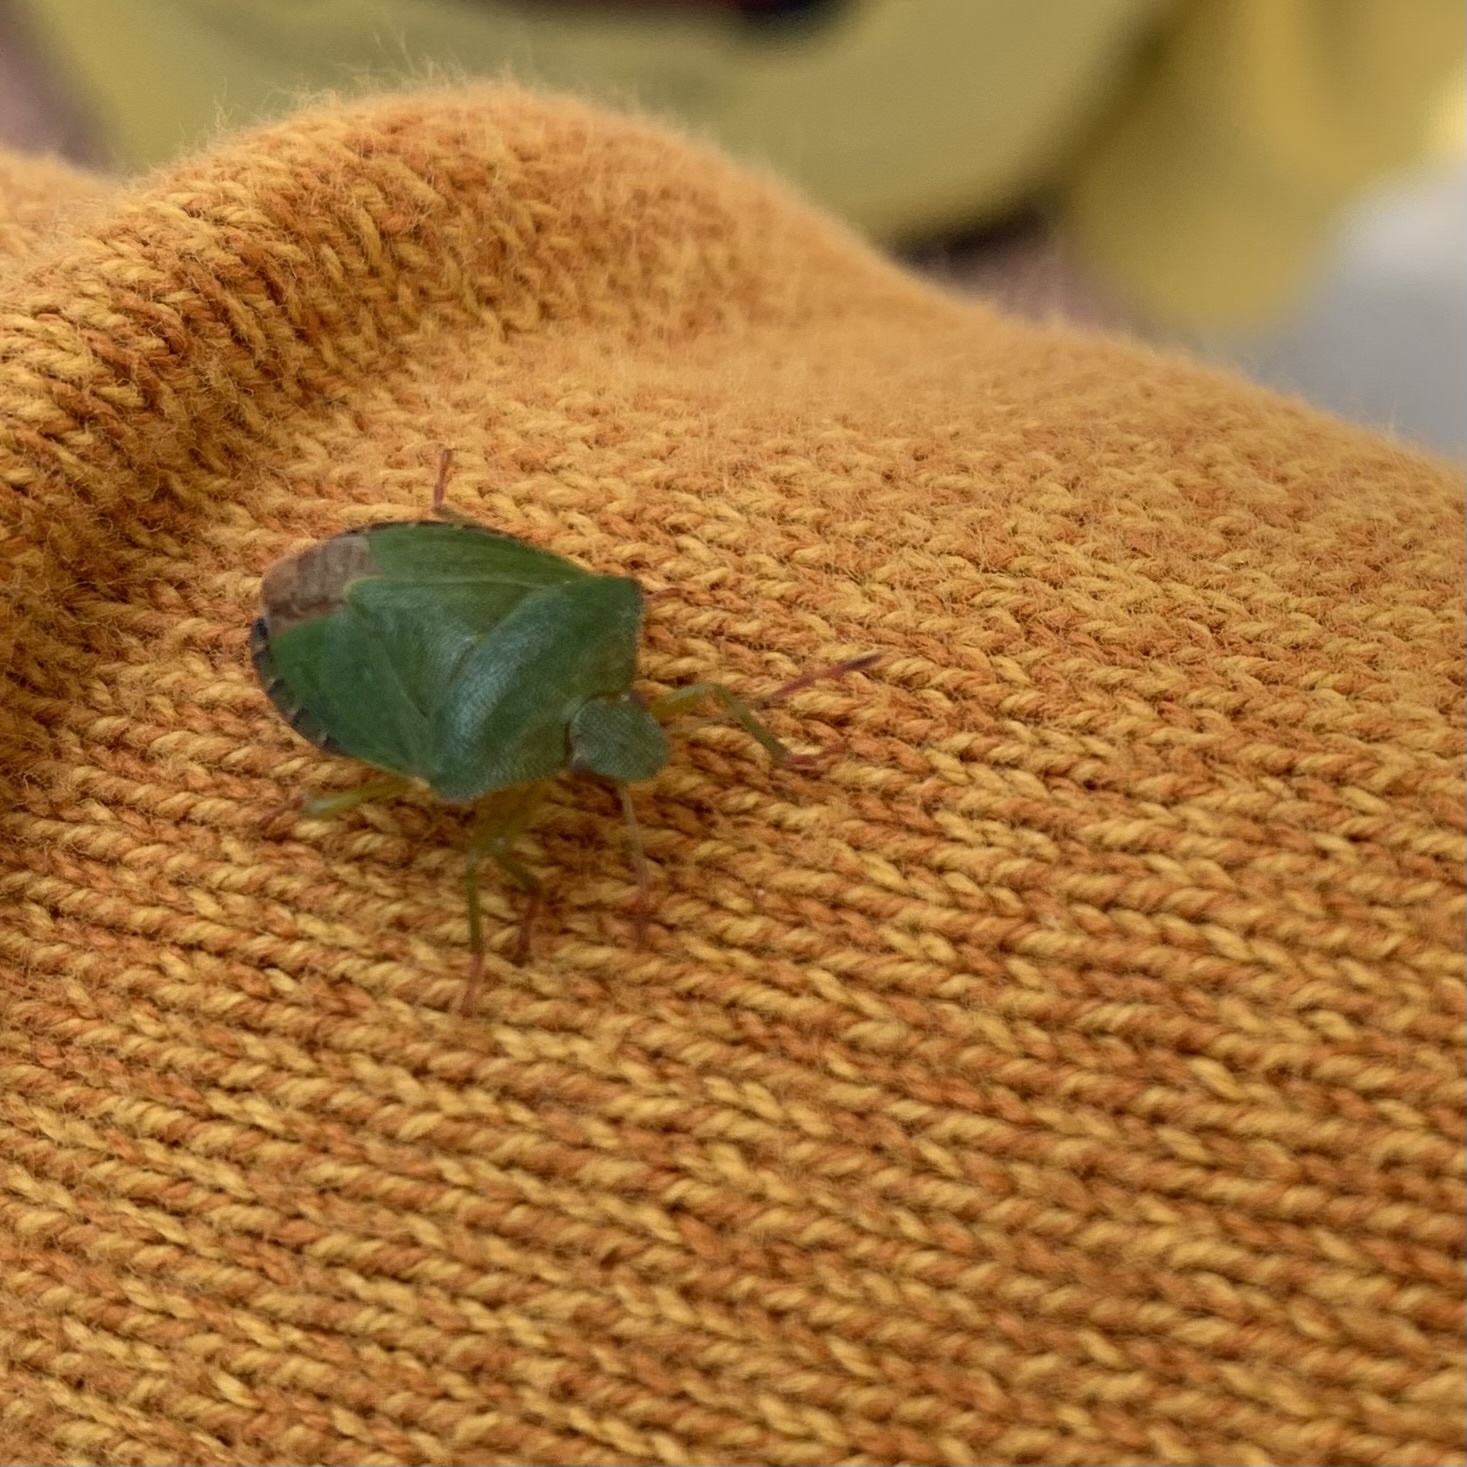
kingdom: Animalia
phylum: Arthropoda
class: Insecta
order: Hemiptera
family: Pentatomidae
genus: Palomena
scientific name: Palomena prasina
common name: Green shieldbug
